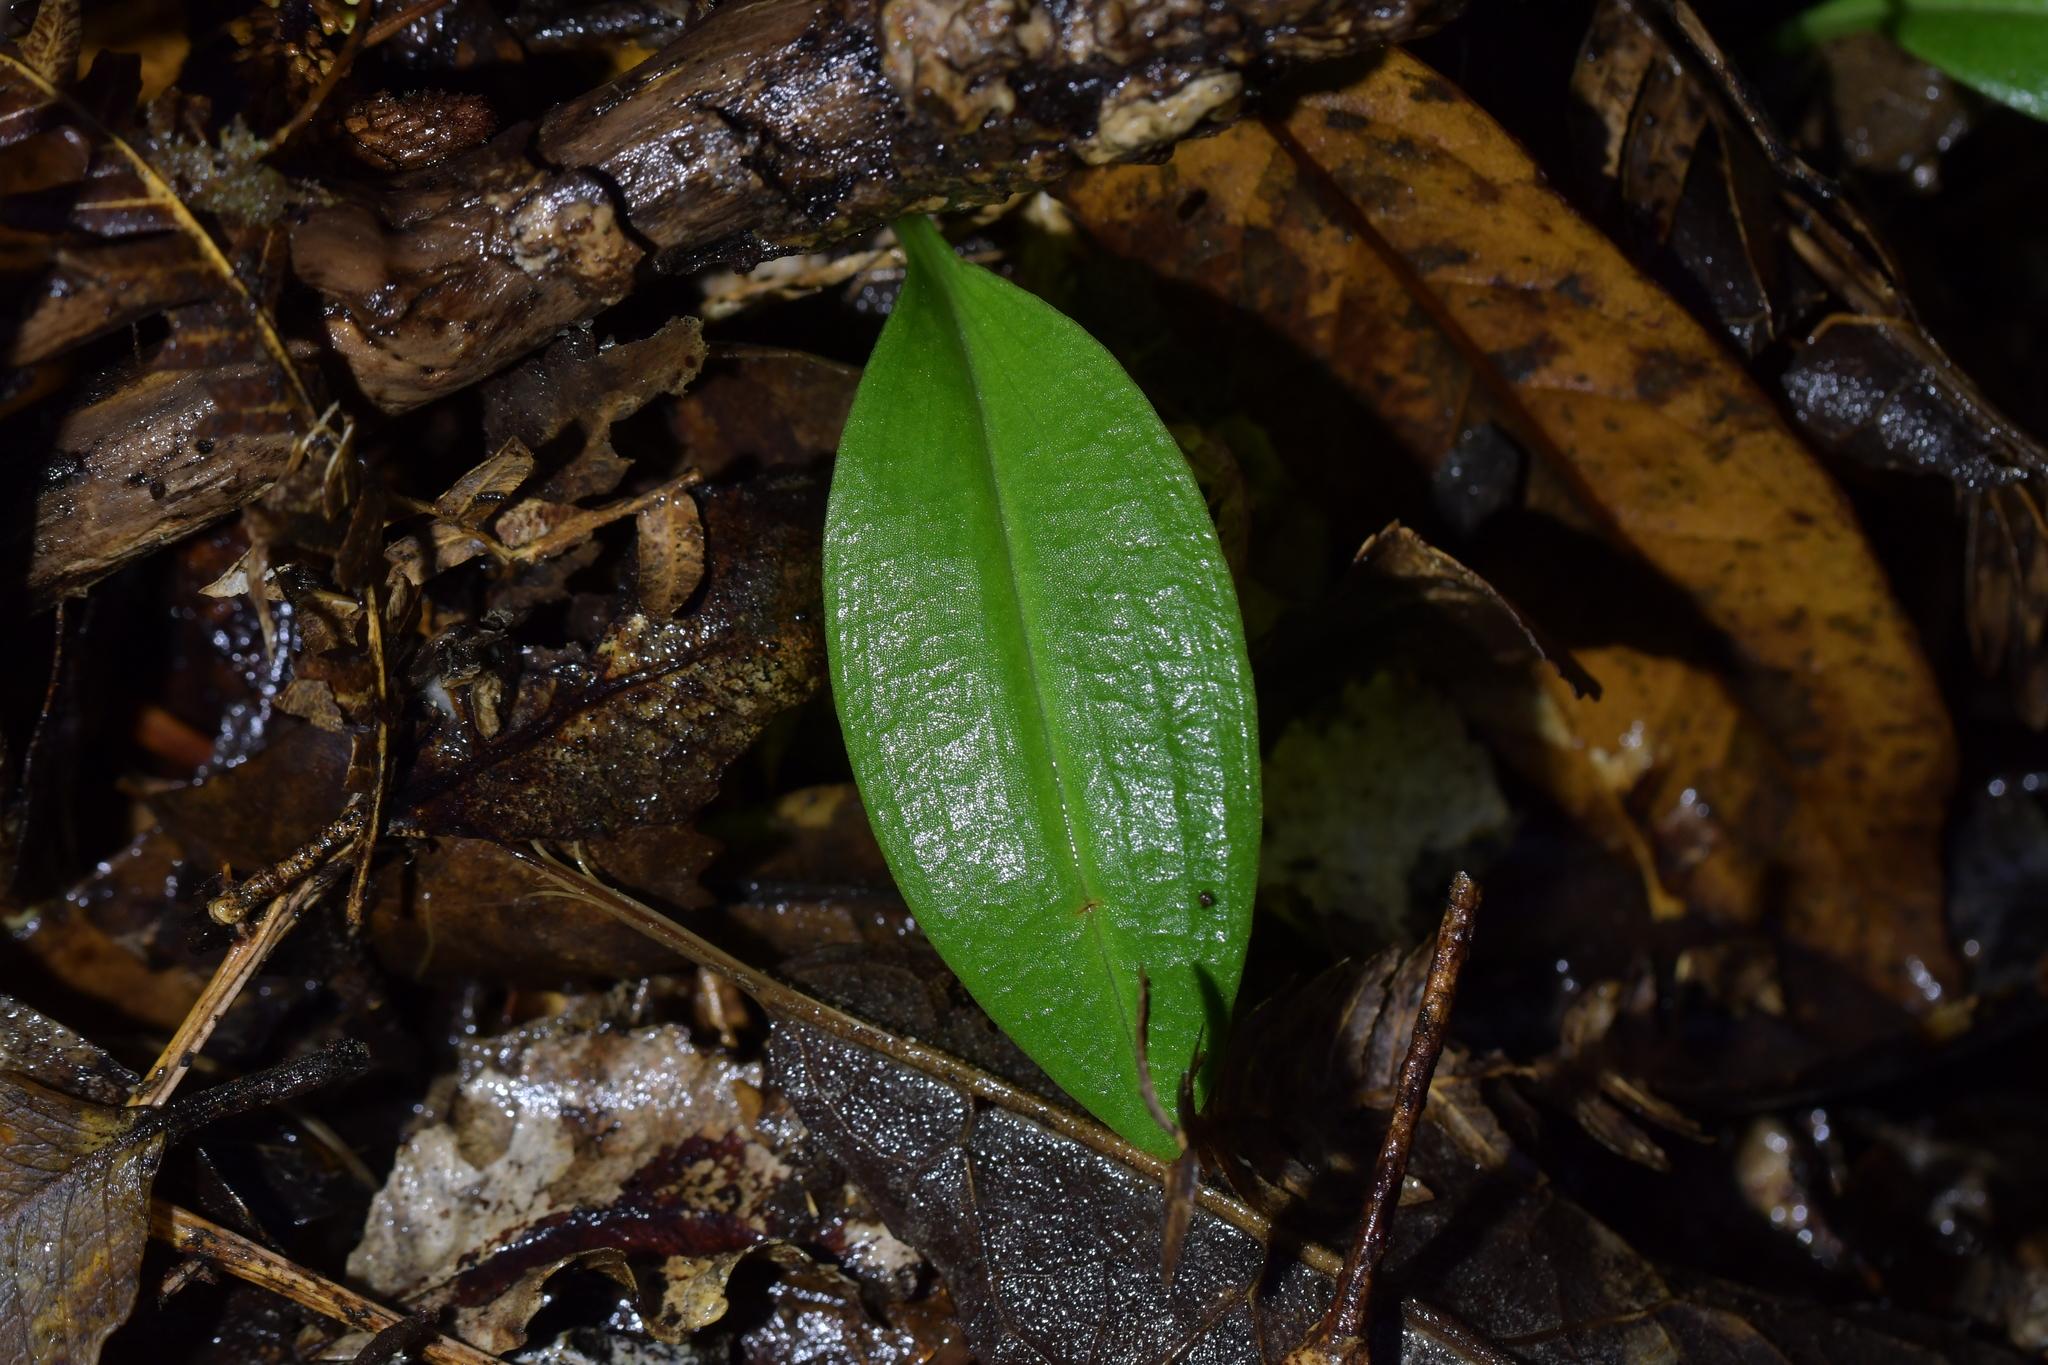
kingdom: Plantae
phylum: Tracheophyta
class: Liliopsida
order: Asparagales
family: Orchidaceae
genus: Chiloglottis
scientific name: Chiloglottis cornuta
